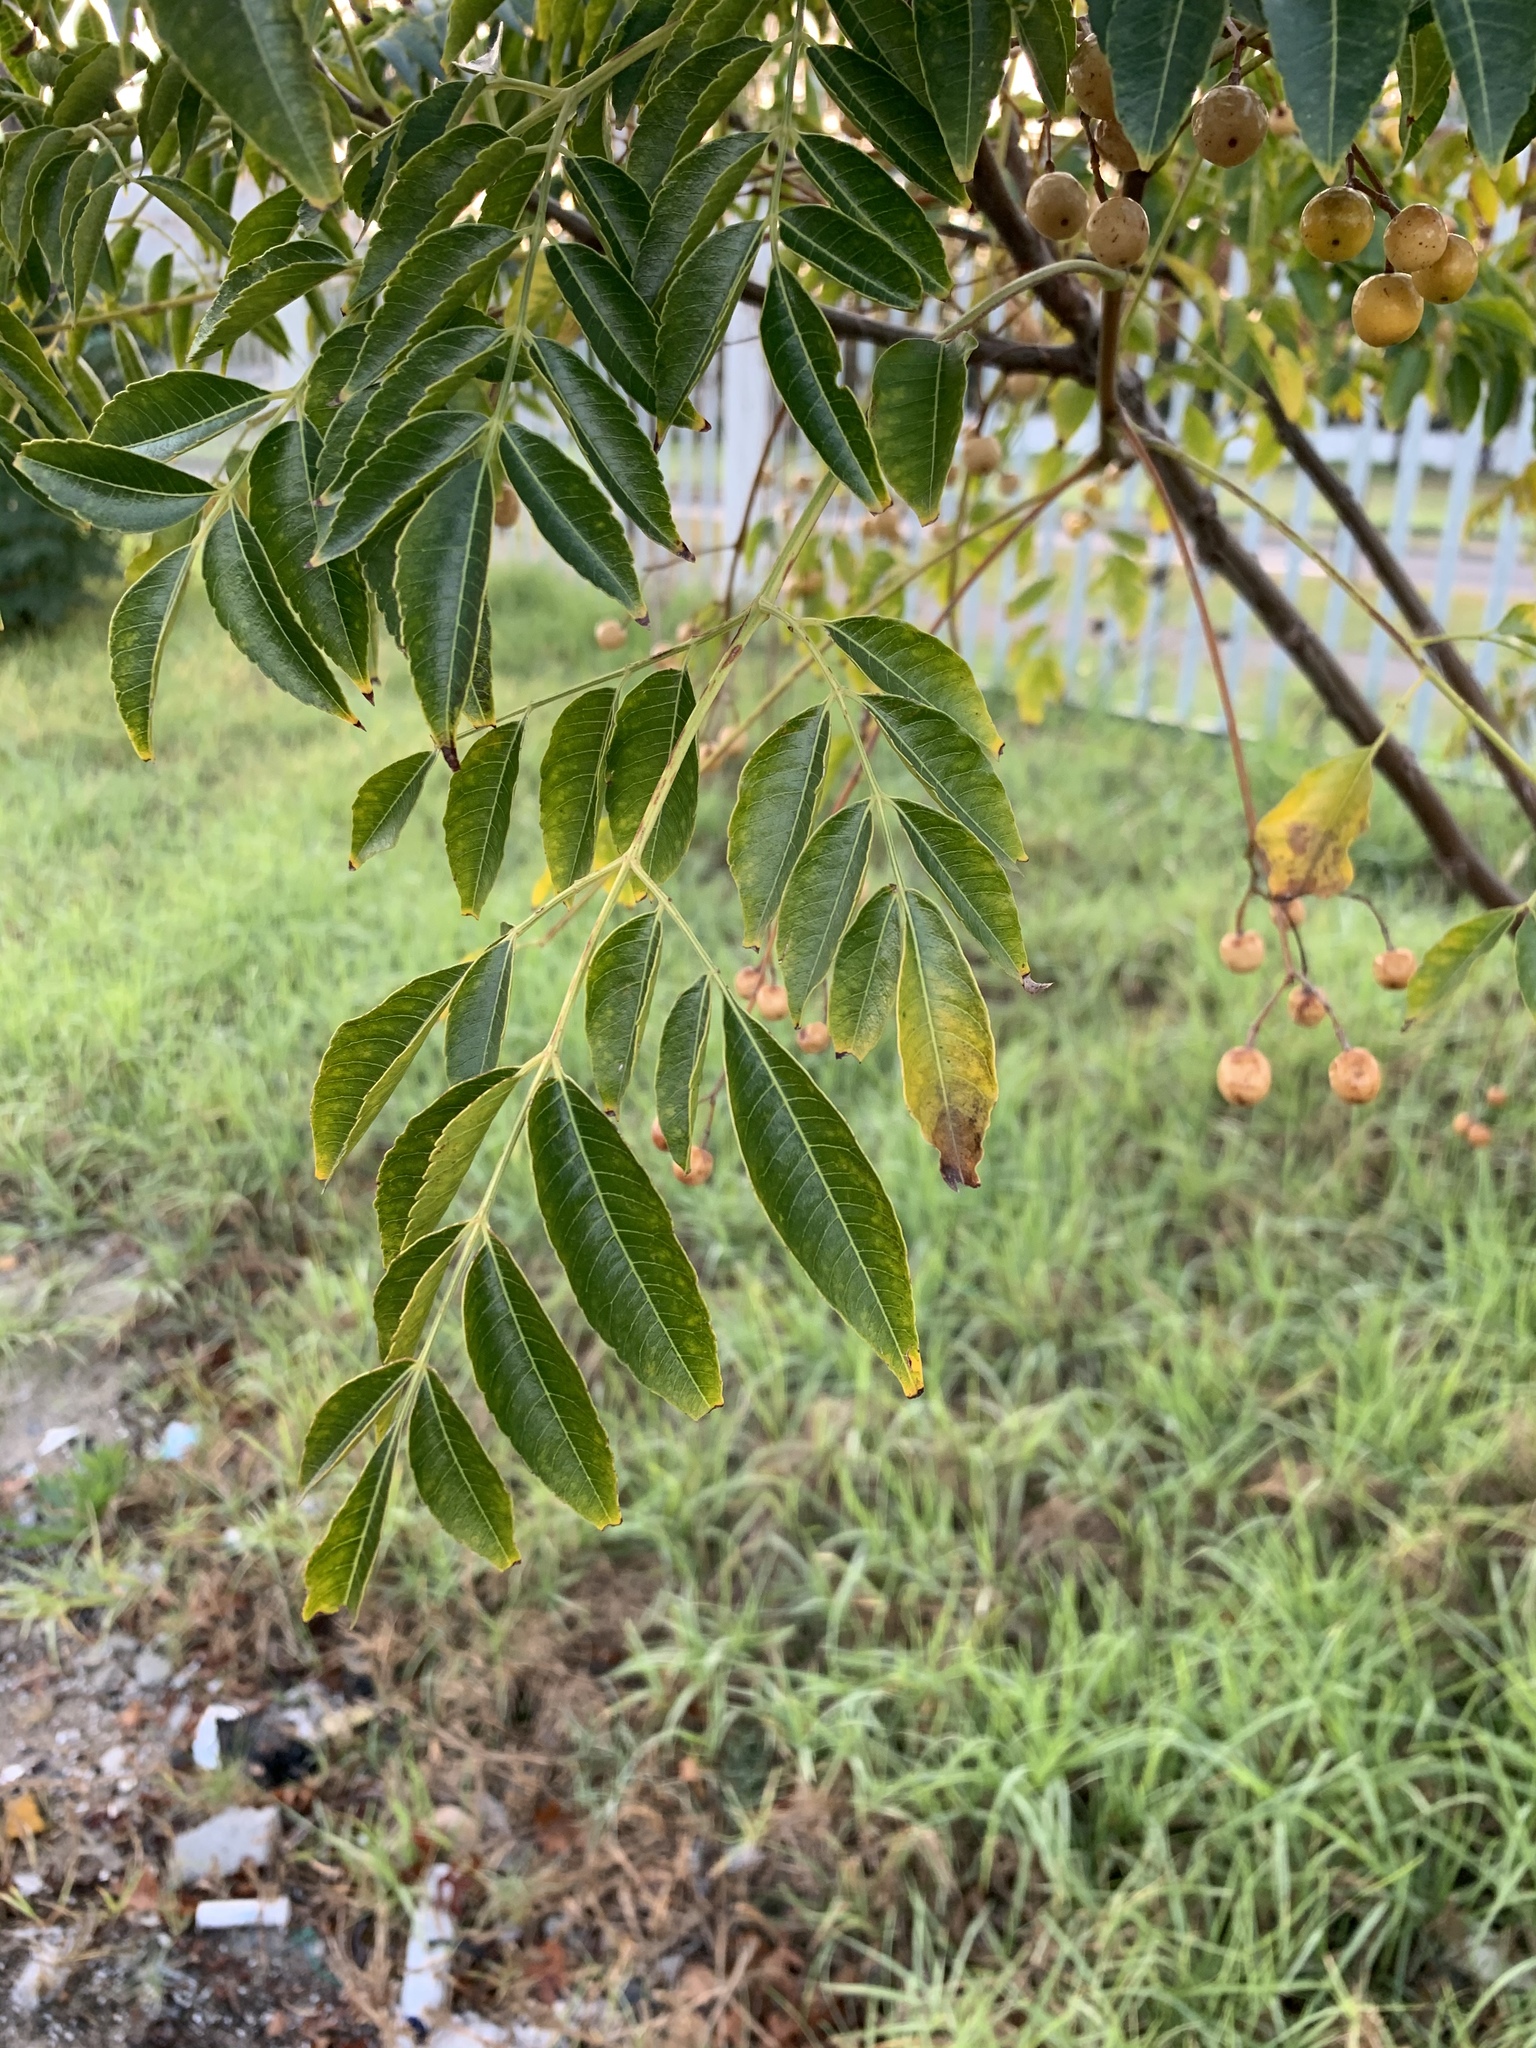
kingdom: Plantae
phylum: Tracheophyta
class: Magnoliopsida
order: Sapindales
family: Meliaceae
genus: Melia
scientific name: Melia azedarach
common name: Chinaberrytree
